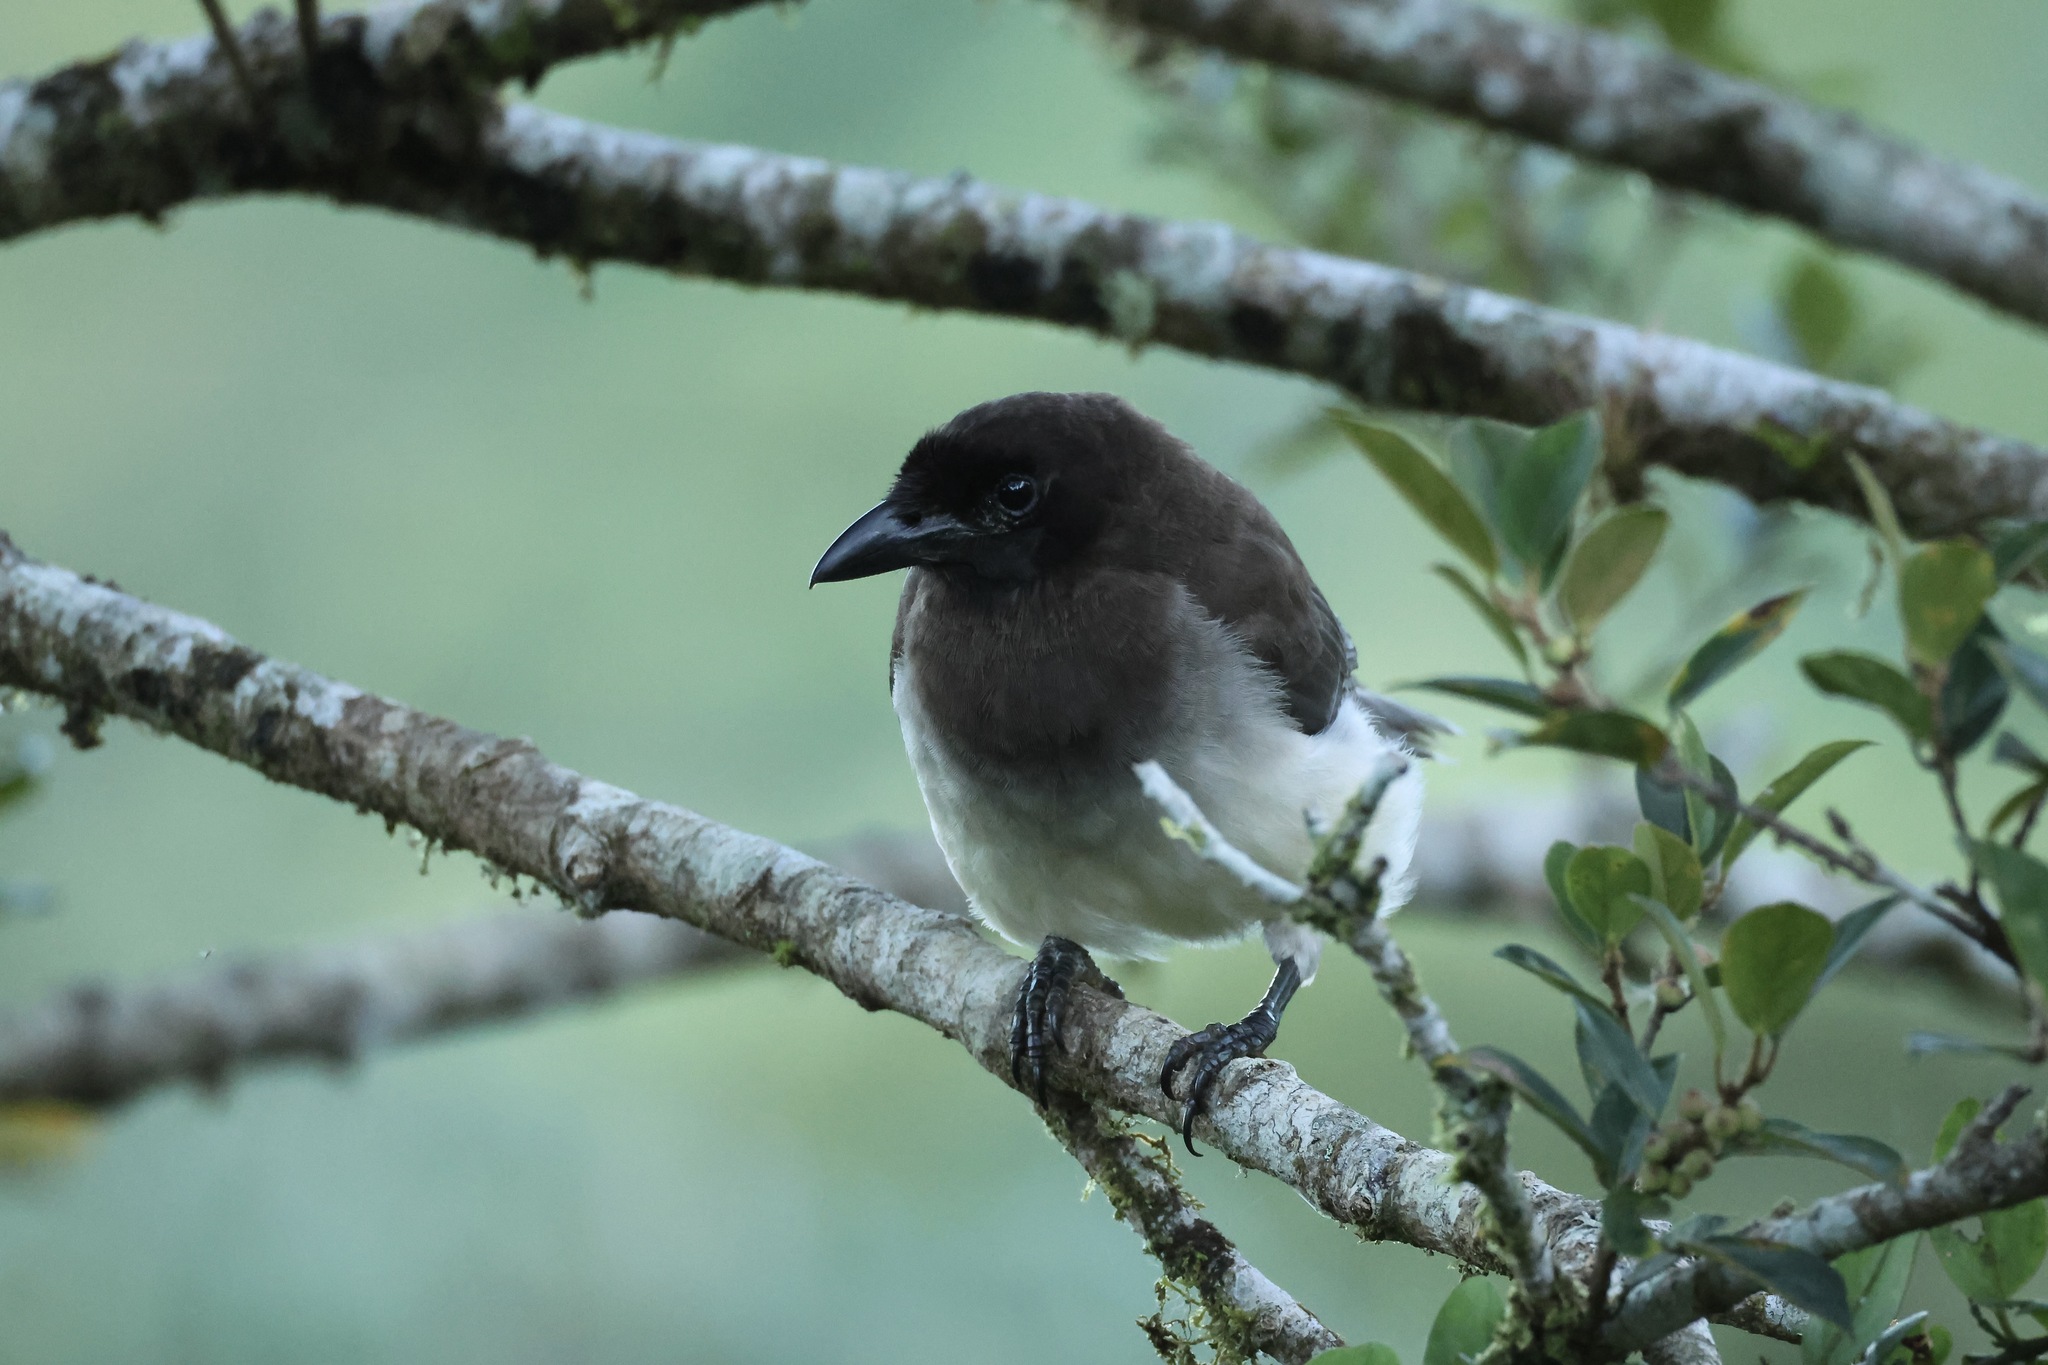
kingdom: Animalia
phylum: Chordata
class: Aves
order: Passeriformes
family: Corvidae
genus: Psilorhinus
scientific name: Psilorhinus morio
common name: Brown jay
